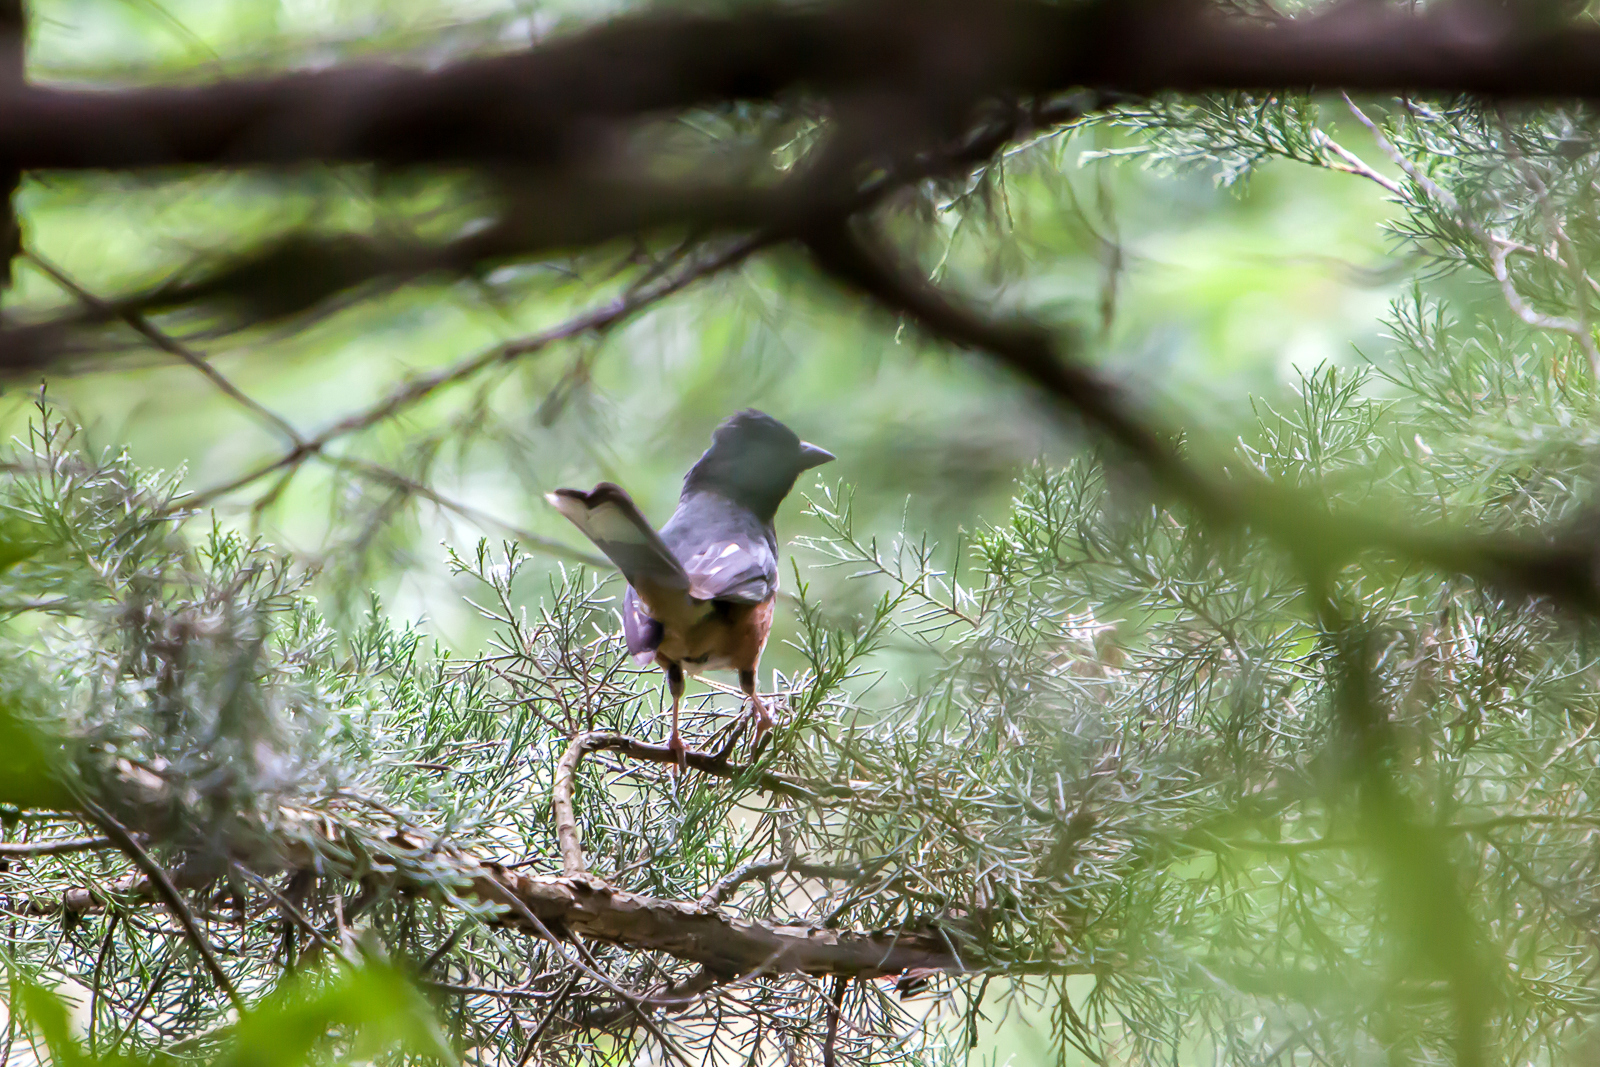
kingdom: Animalia
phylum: Chordata
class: Aves
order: Passeriformes
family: Passerellidae
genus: Pipilo
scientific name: Pipilo erythrophthalmus
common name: Eastern towhee
